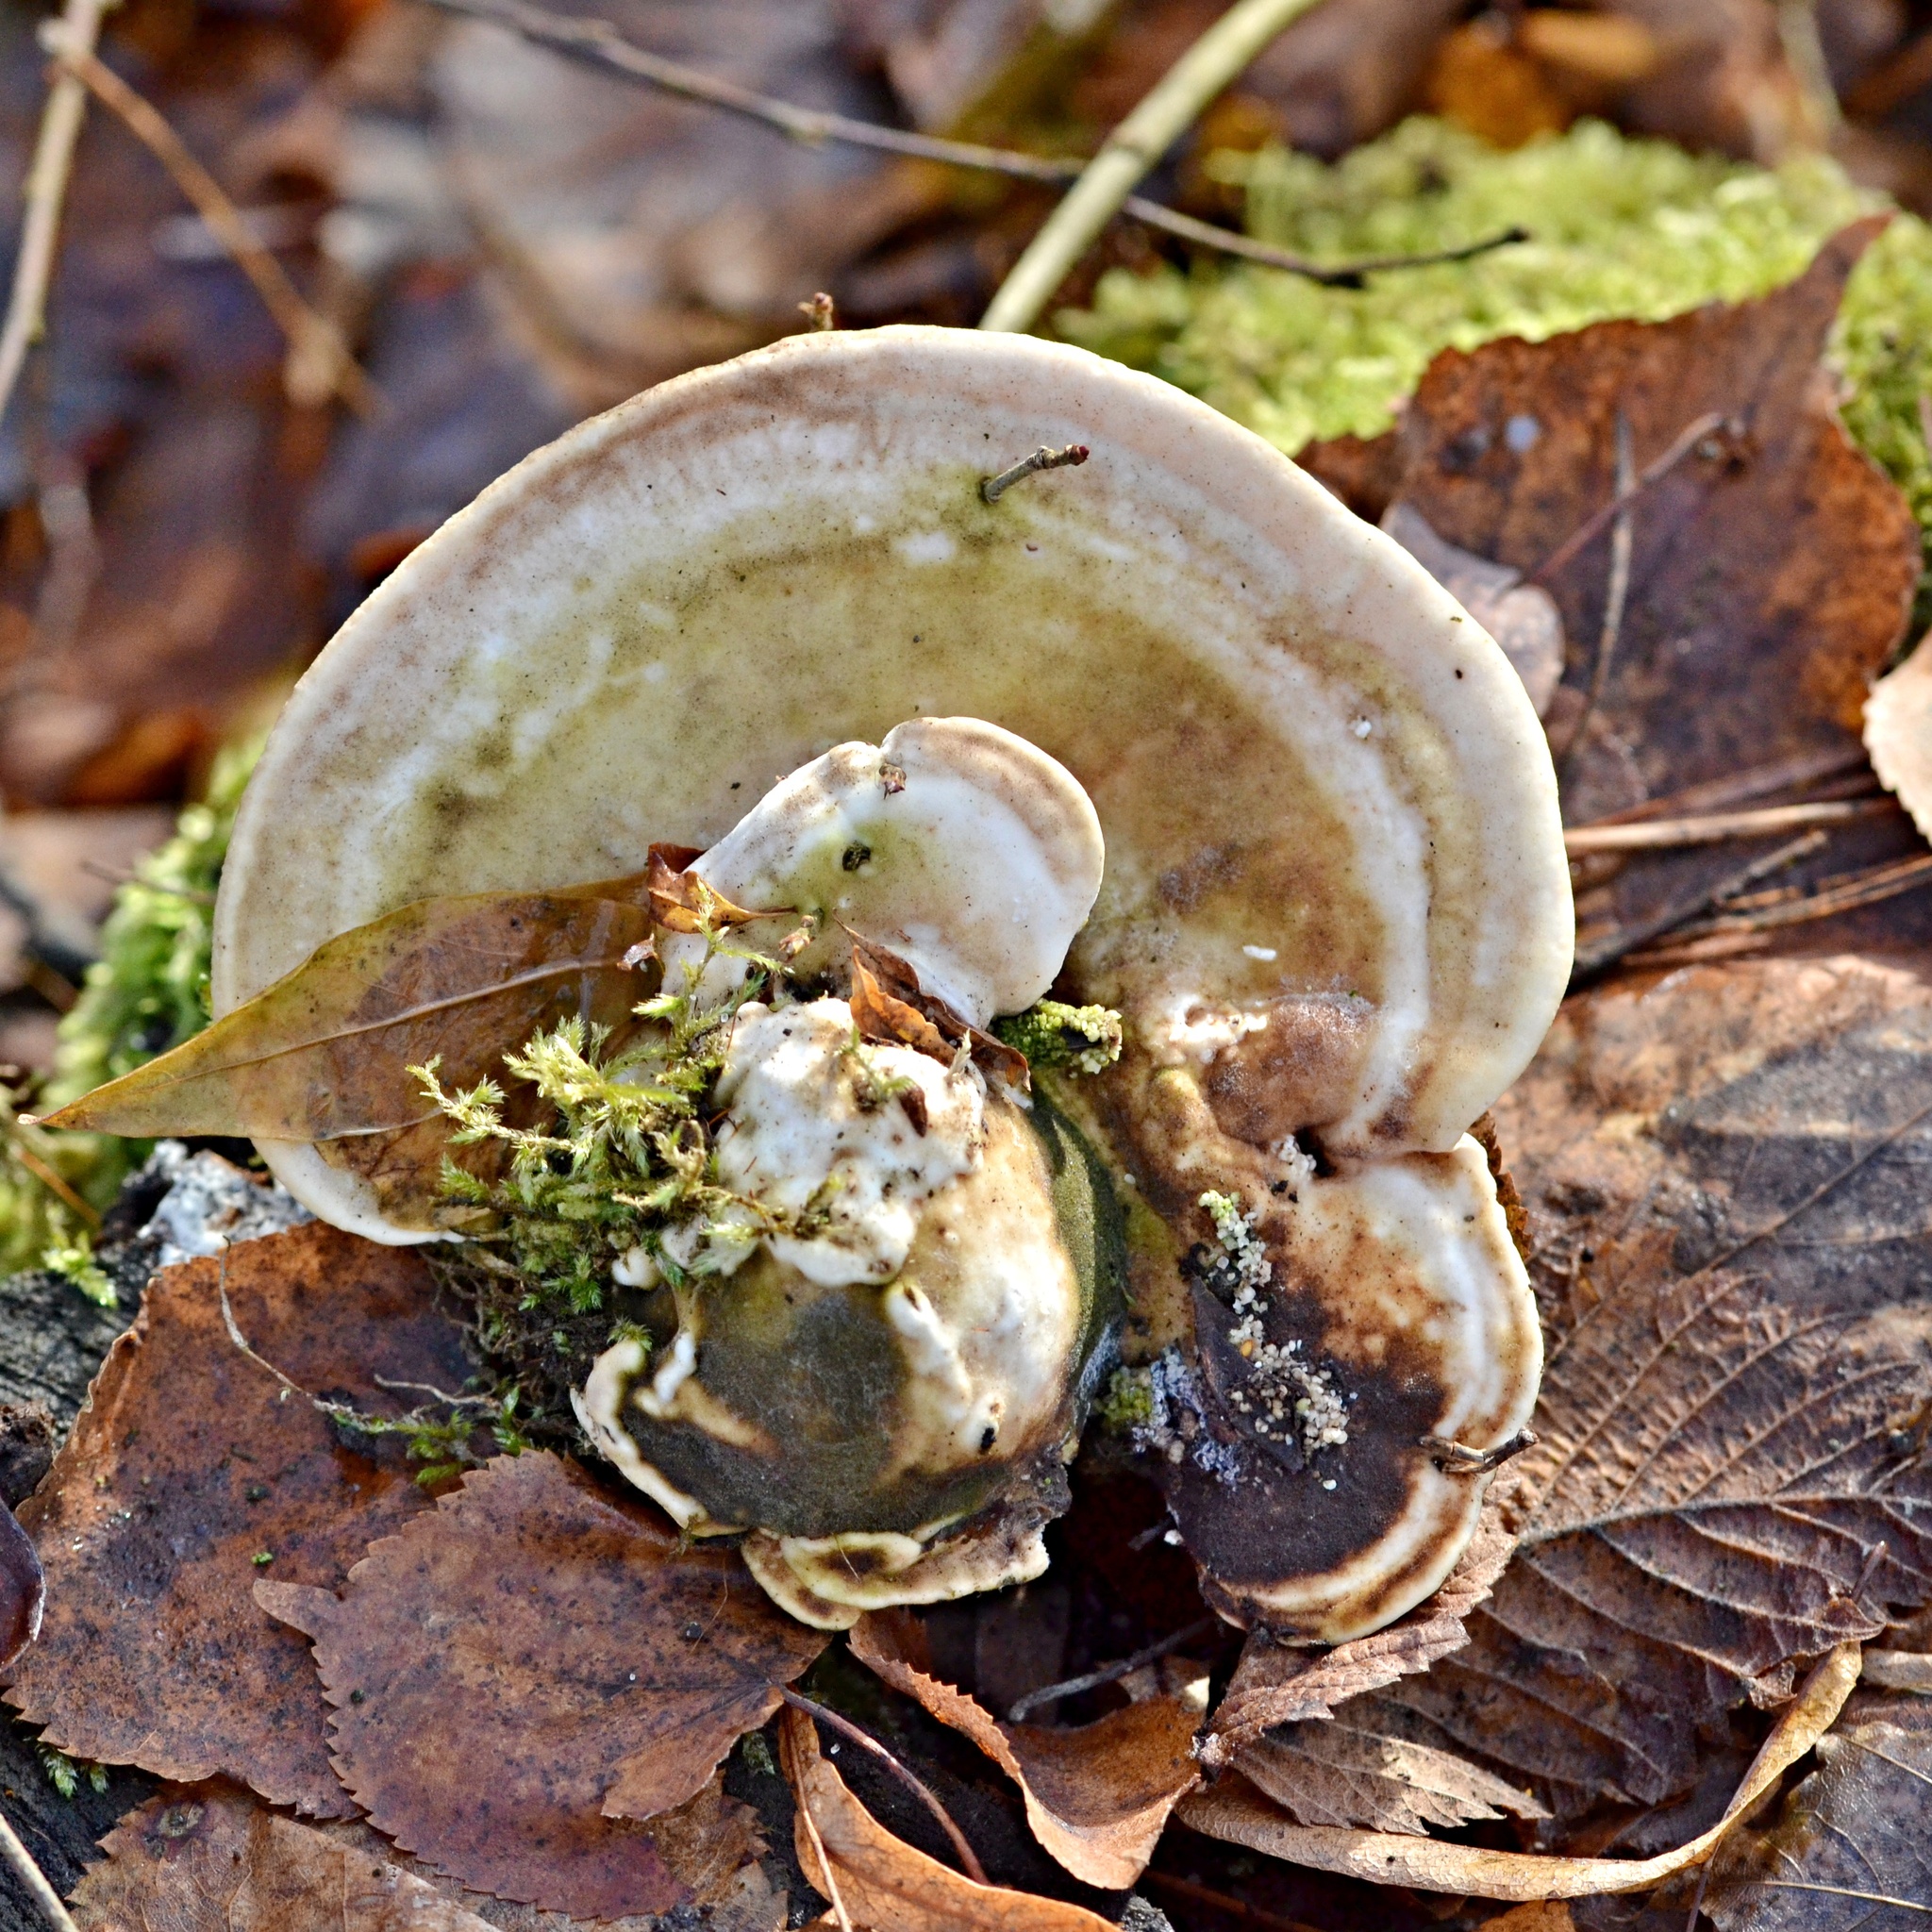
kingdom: Fungi
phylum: Basidiomycota
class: Agaricomycetes
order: Polyporales
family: Polyporaceae
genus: Trametes
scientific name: Trametes gibbosa
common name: Lumpy bracket
